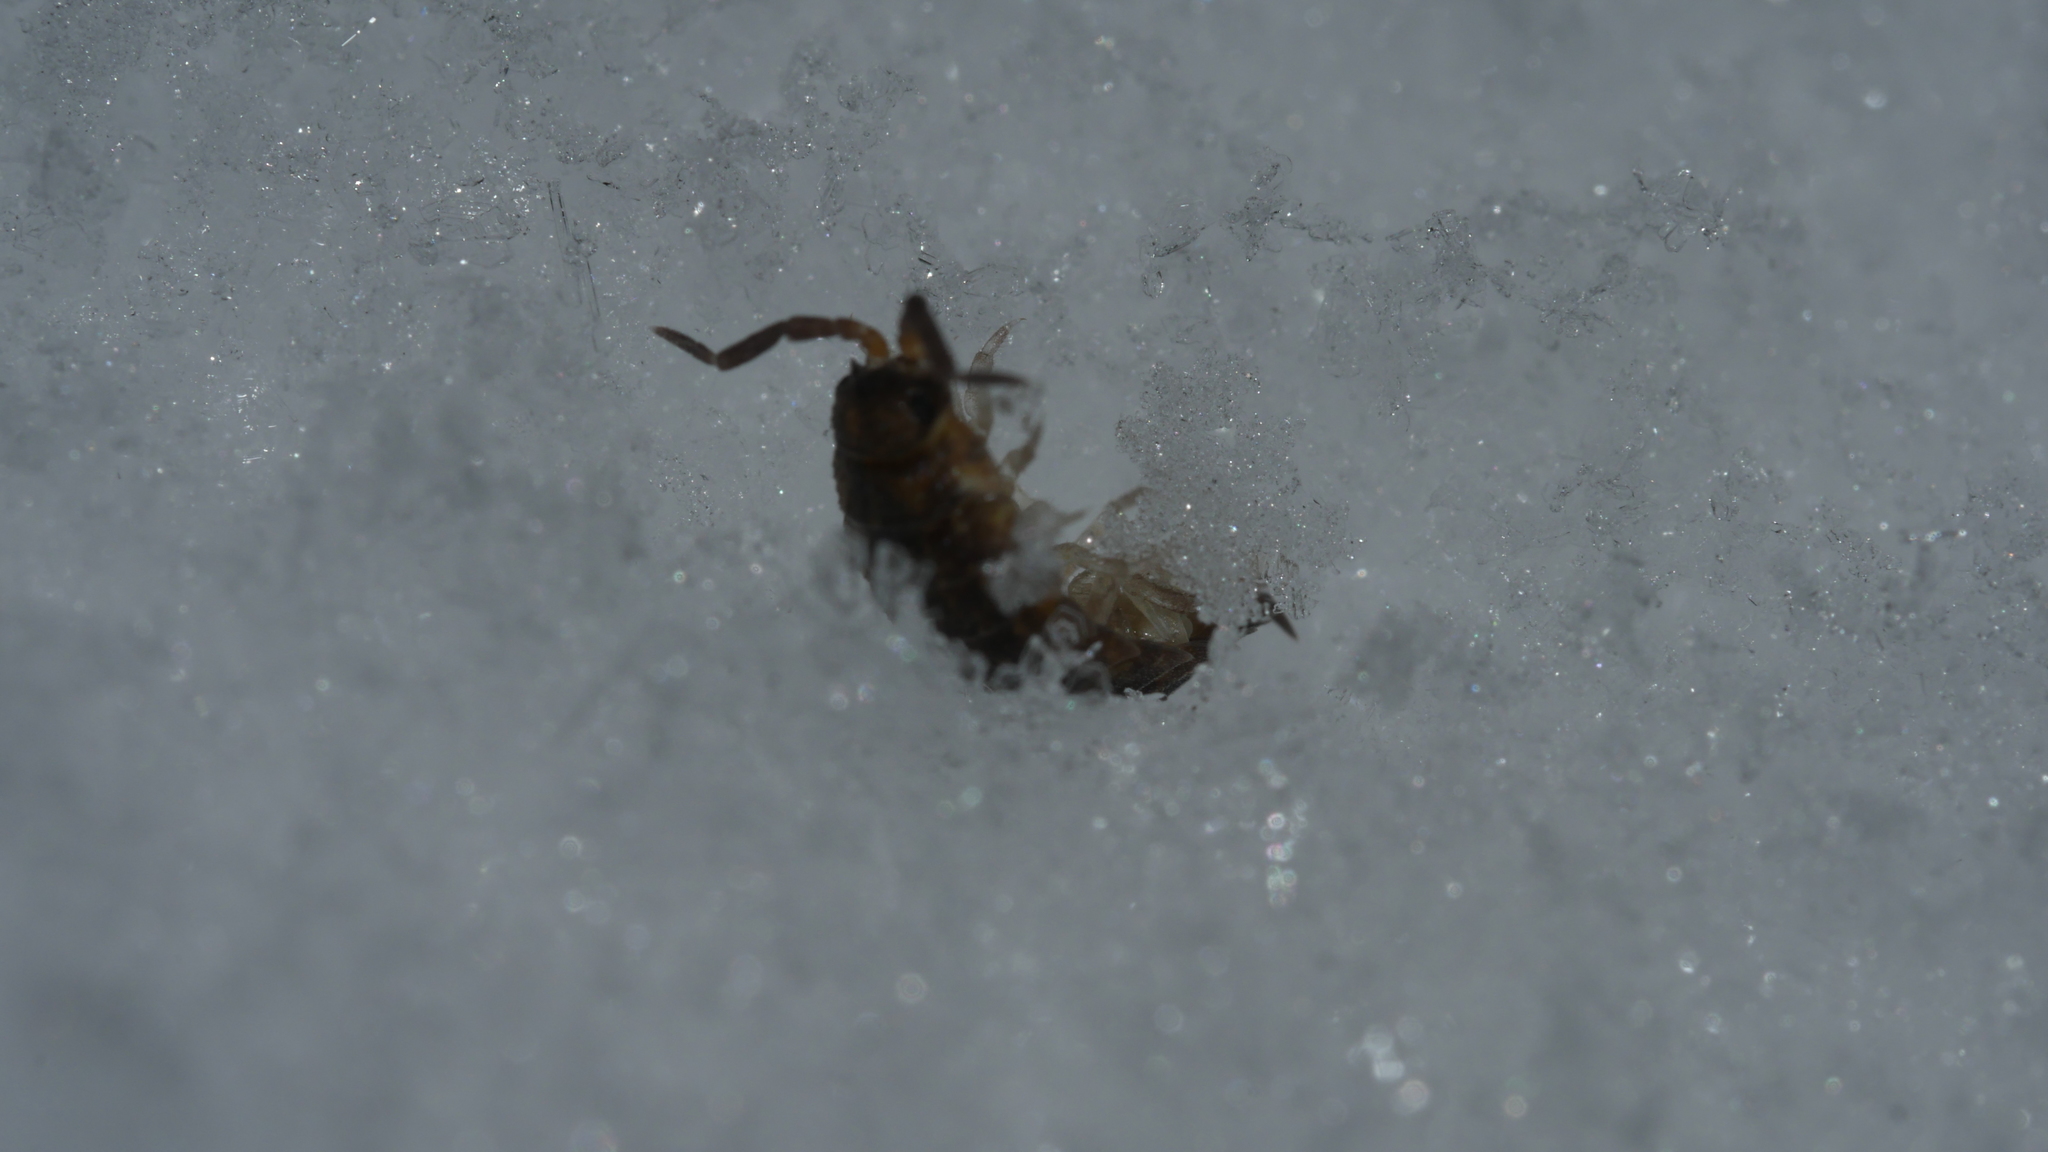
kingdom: Animalia
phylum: Arthropoda
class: Malacostraca
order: Isopoda
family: Porcellionidae
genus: Porcellio
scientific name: Porcellio scaber
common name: Common rough woodlouse
